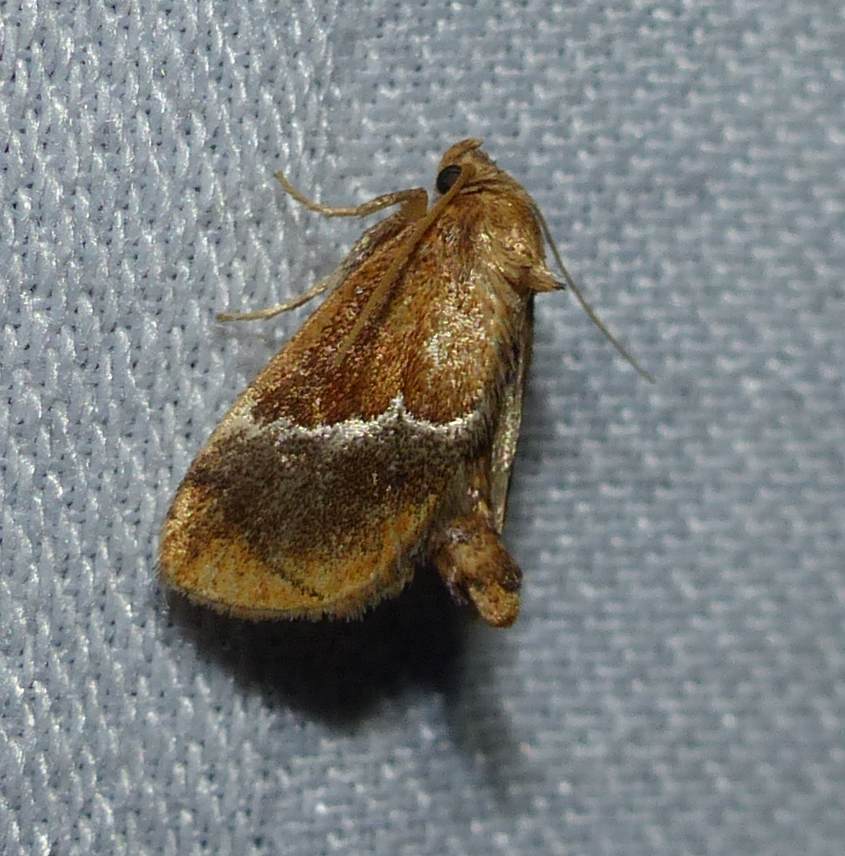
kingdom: Animalia
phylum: Arthropoda
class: Insecta
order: Lepidoptera
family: Limacodidae
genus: Lithacodes
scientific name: Lithacodes fasciola
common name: Yellow-shouldered slug moth
